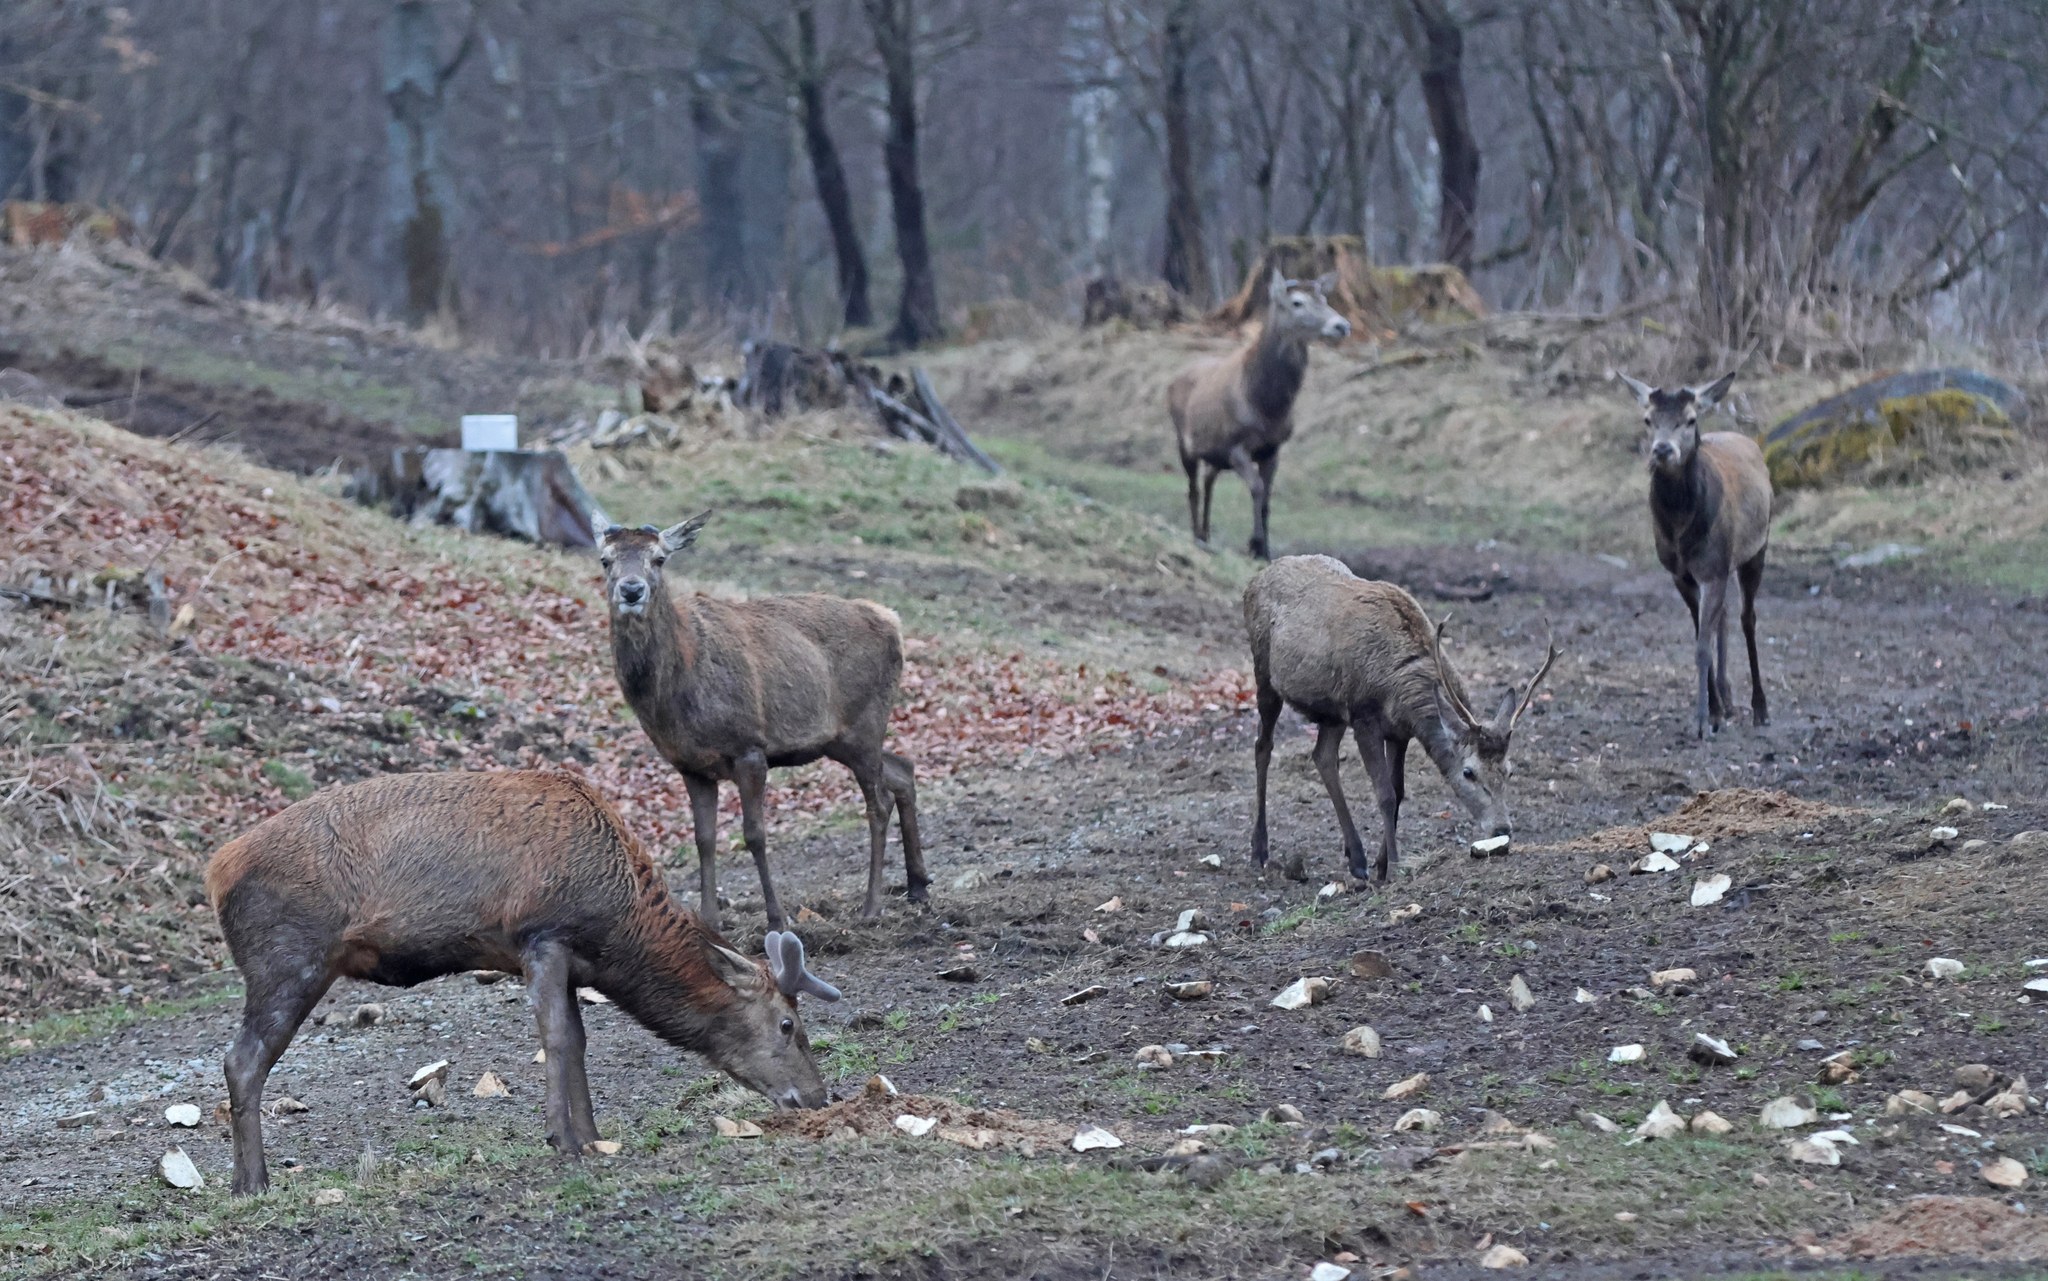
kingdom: Animalia
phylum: Chordata
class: Mammalia
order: Artiodactyla
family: Cervidae
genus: Cervus
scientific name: Cervus elaphus
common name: Red deer
